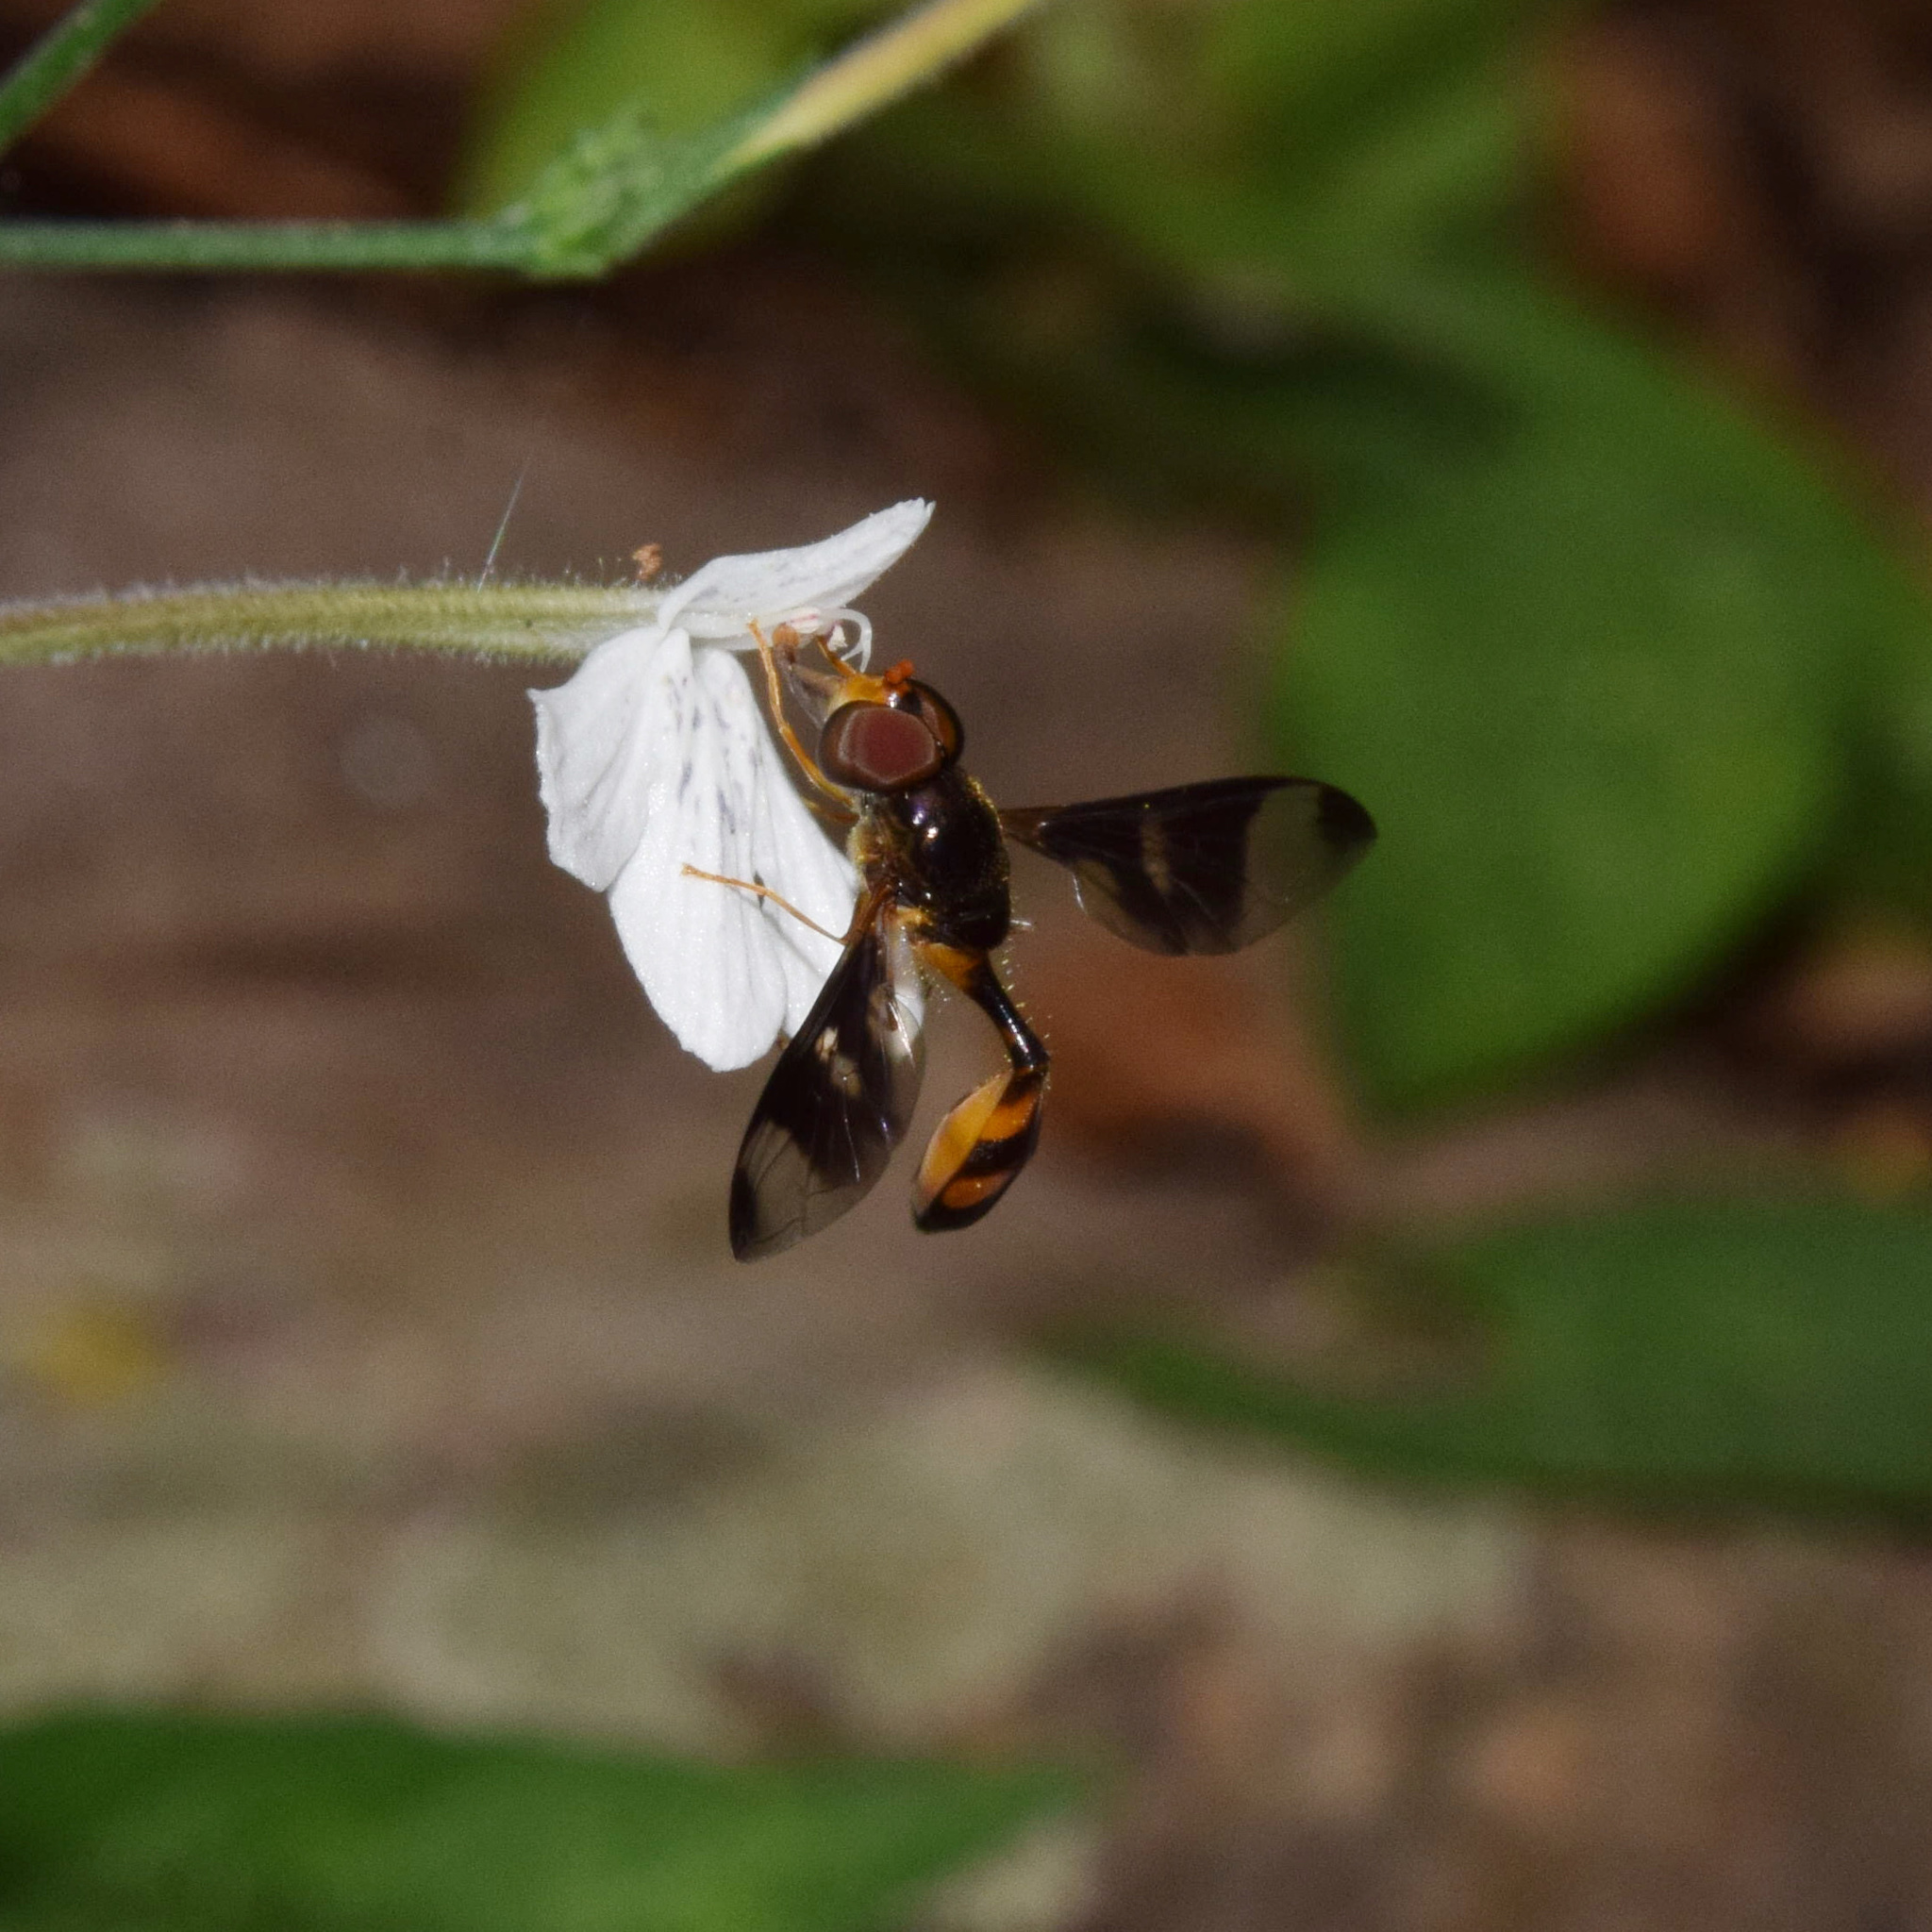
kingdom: Animalia
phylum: Arthropoda
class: Insecta
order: Diptera
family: Syrphidae
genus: Allobaccha
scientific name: Allobaccha neavei
